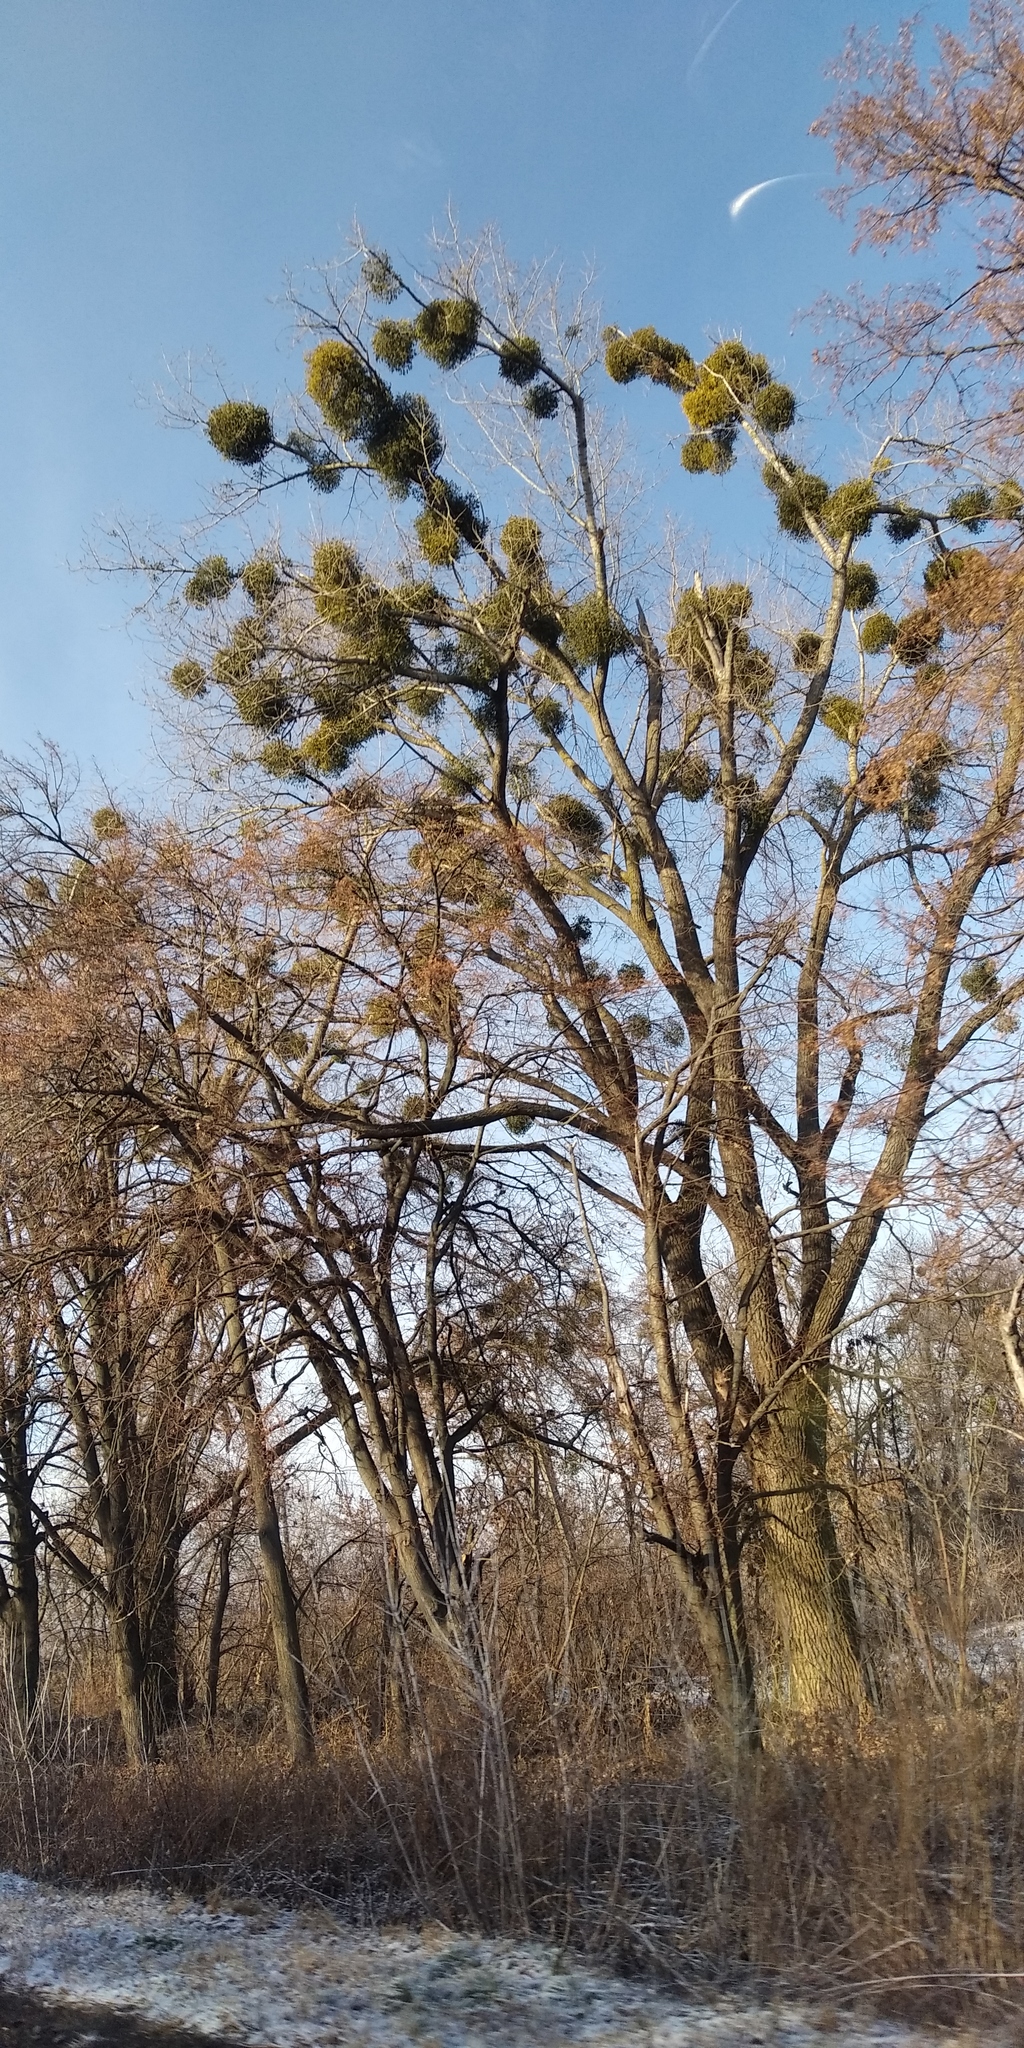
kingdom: Plantae
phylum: Tracheophyta
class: Magnoliopsida
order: Santalales
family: Viscaceae
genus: Viscum
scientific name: Viscum album
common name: Mistletoe
